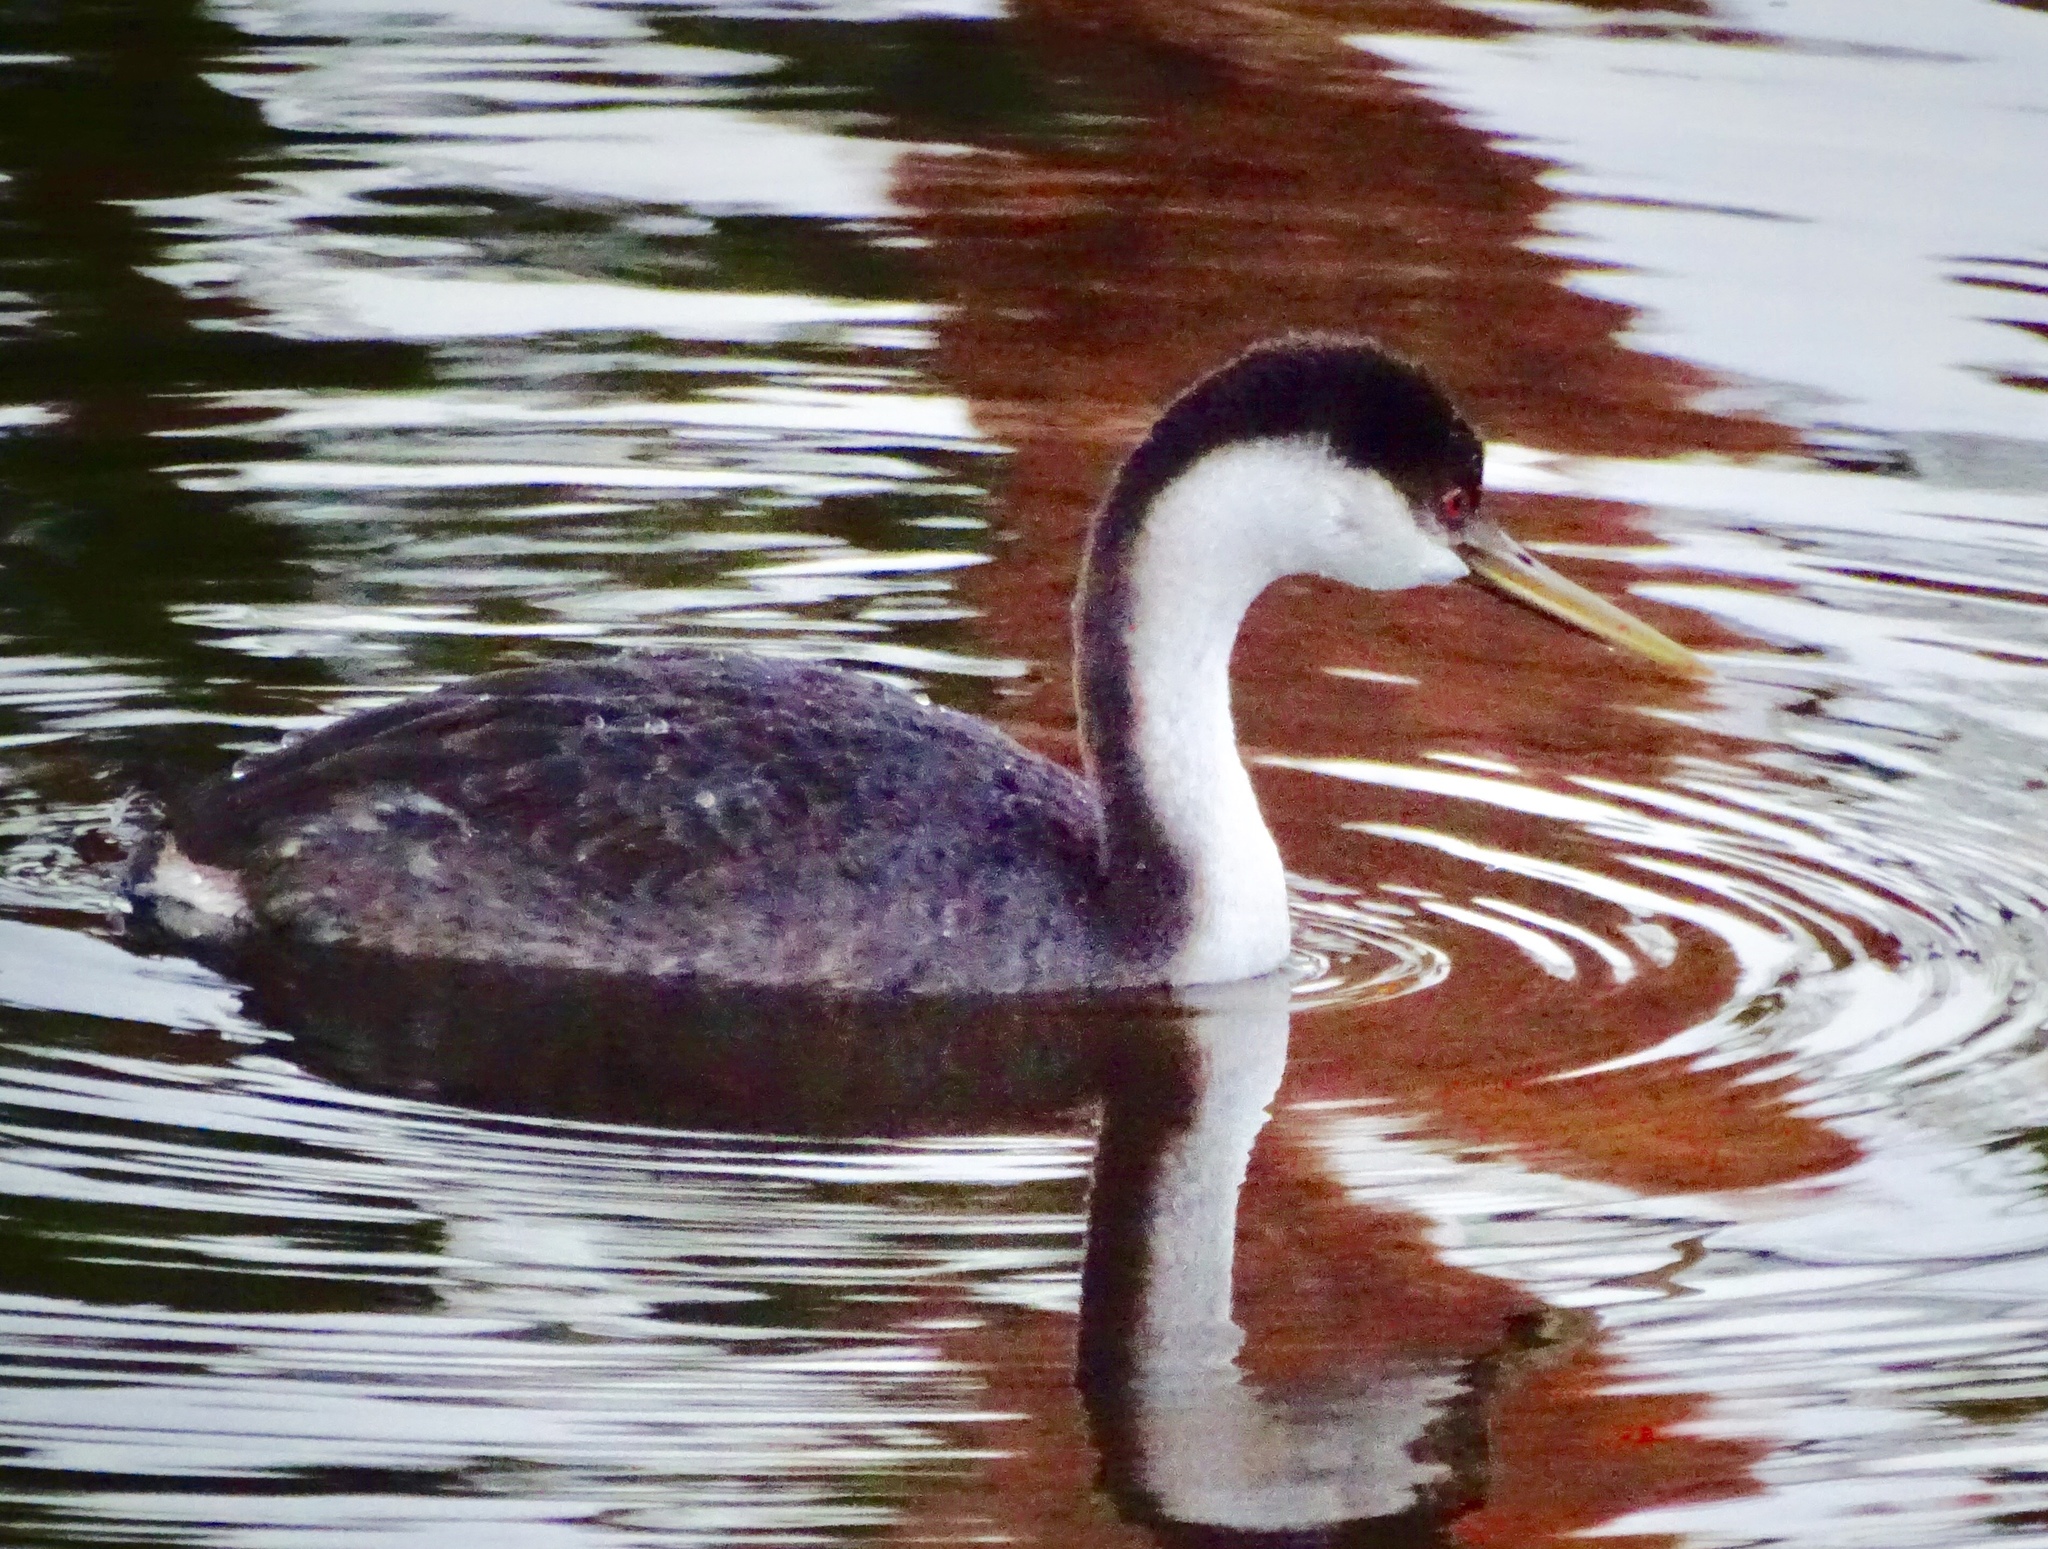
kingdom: Animalia
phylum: Chordata
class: Aves
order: Podicipediformes
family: Podicipedidae
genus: Aechmophorus
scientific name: Aechmophorus occidentalis
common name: Western grebe
